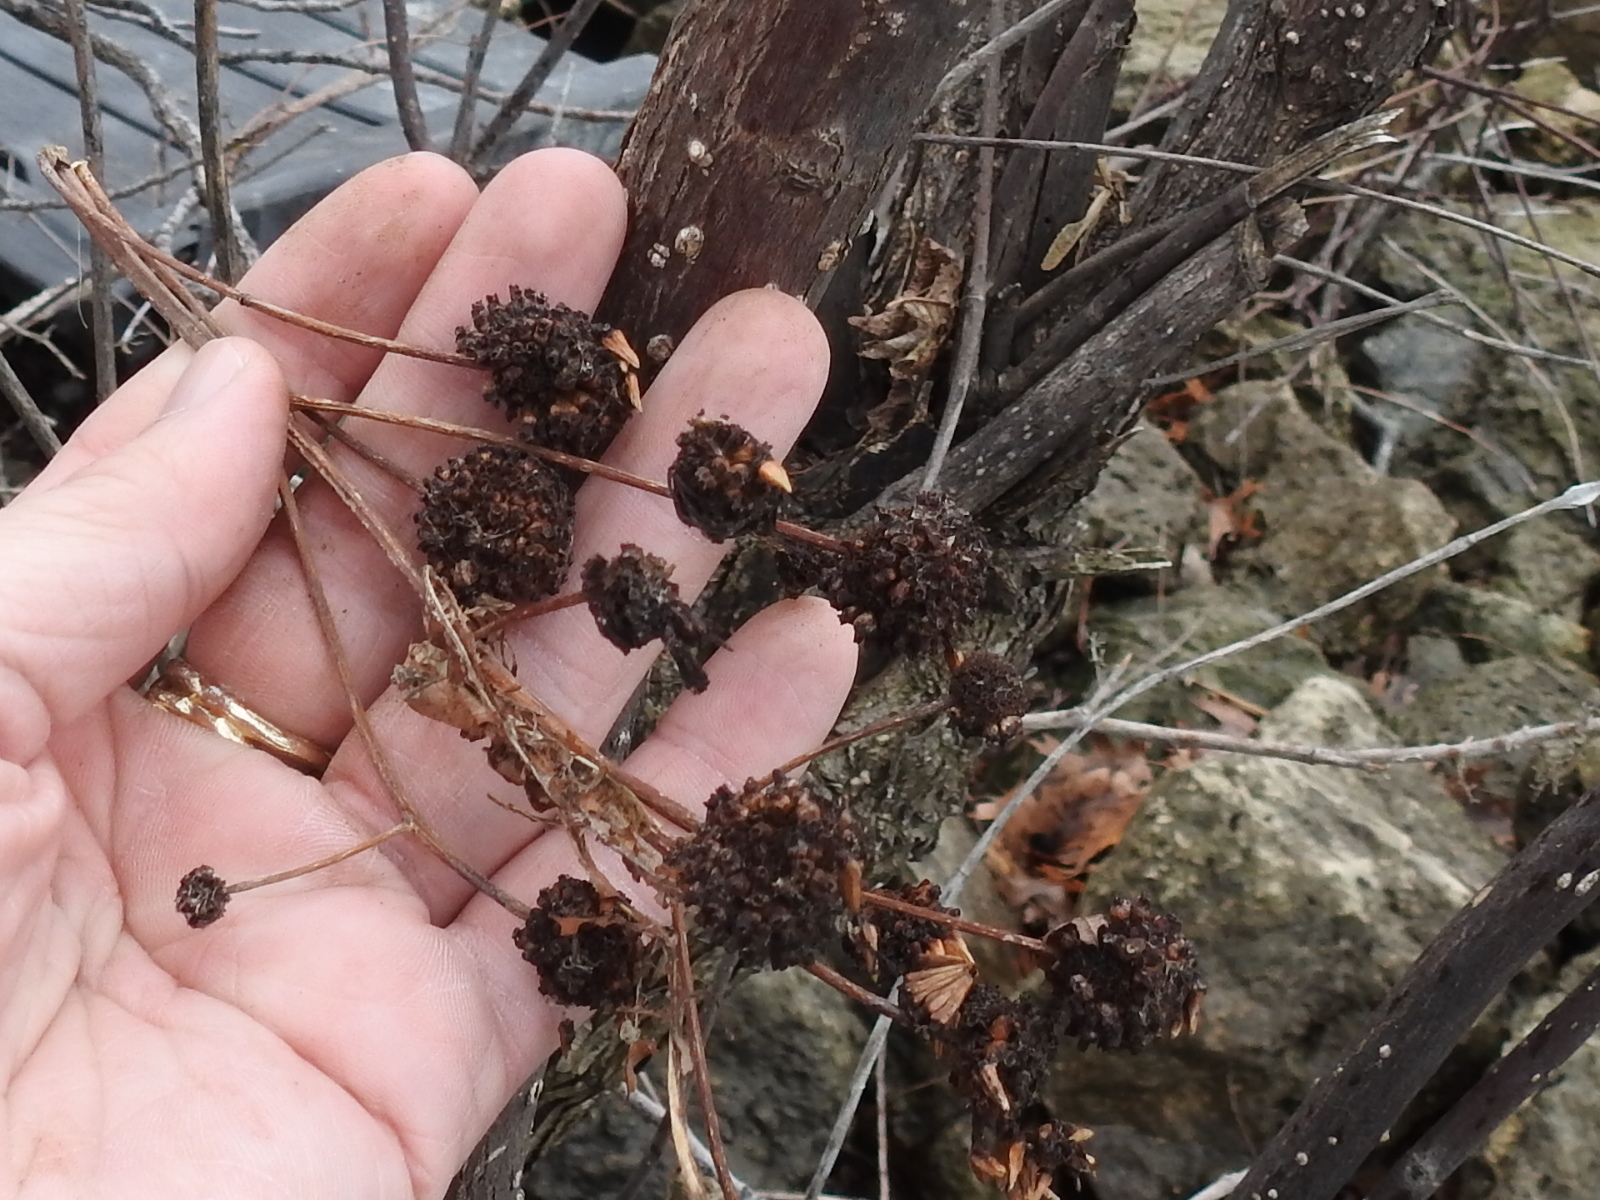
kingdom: Plantae
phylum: Tracheophyta
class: Magnoliopsida
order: Gentianales
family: Rubiaceae
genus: Cephalanthus
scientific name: Cephalanthus occidentalis
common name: Button-willow
